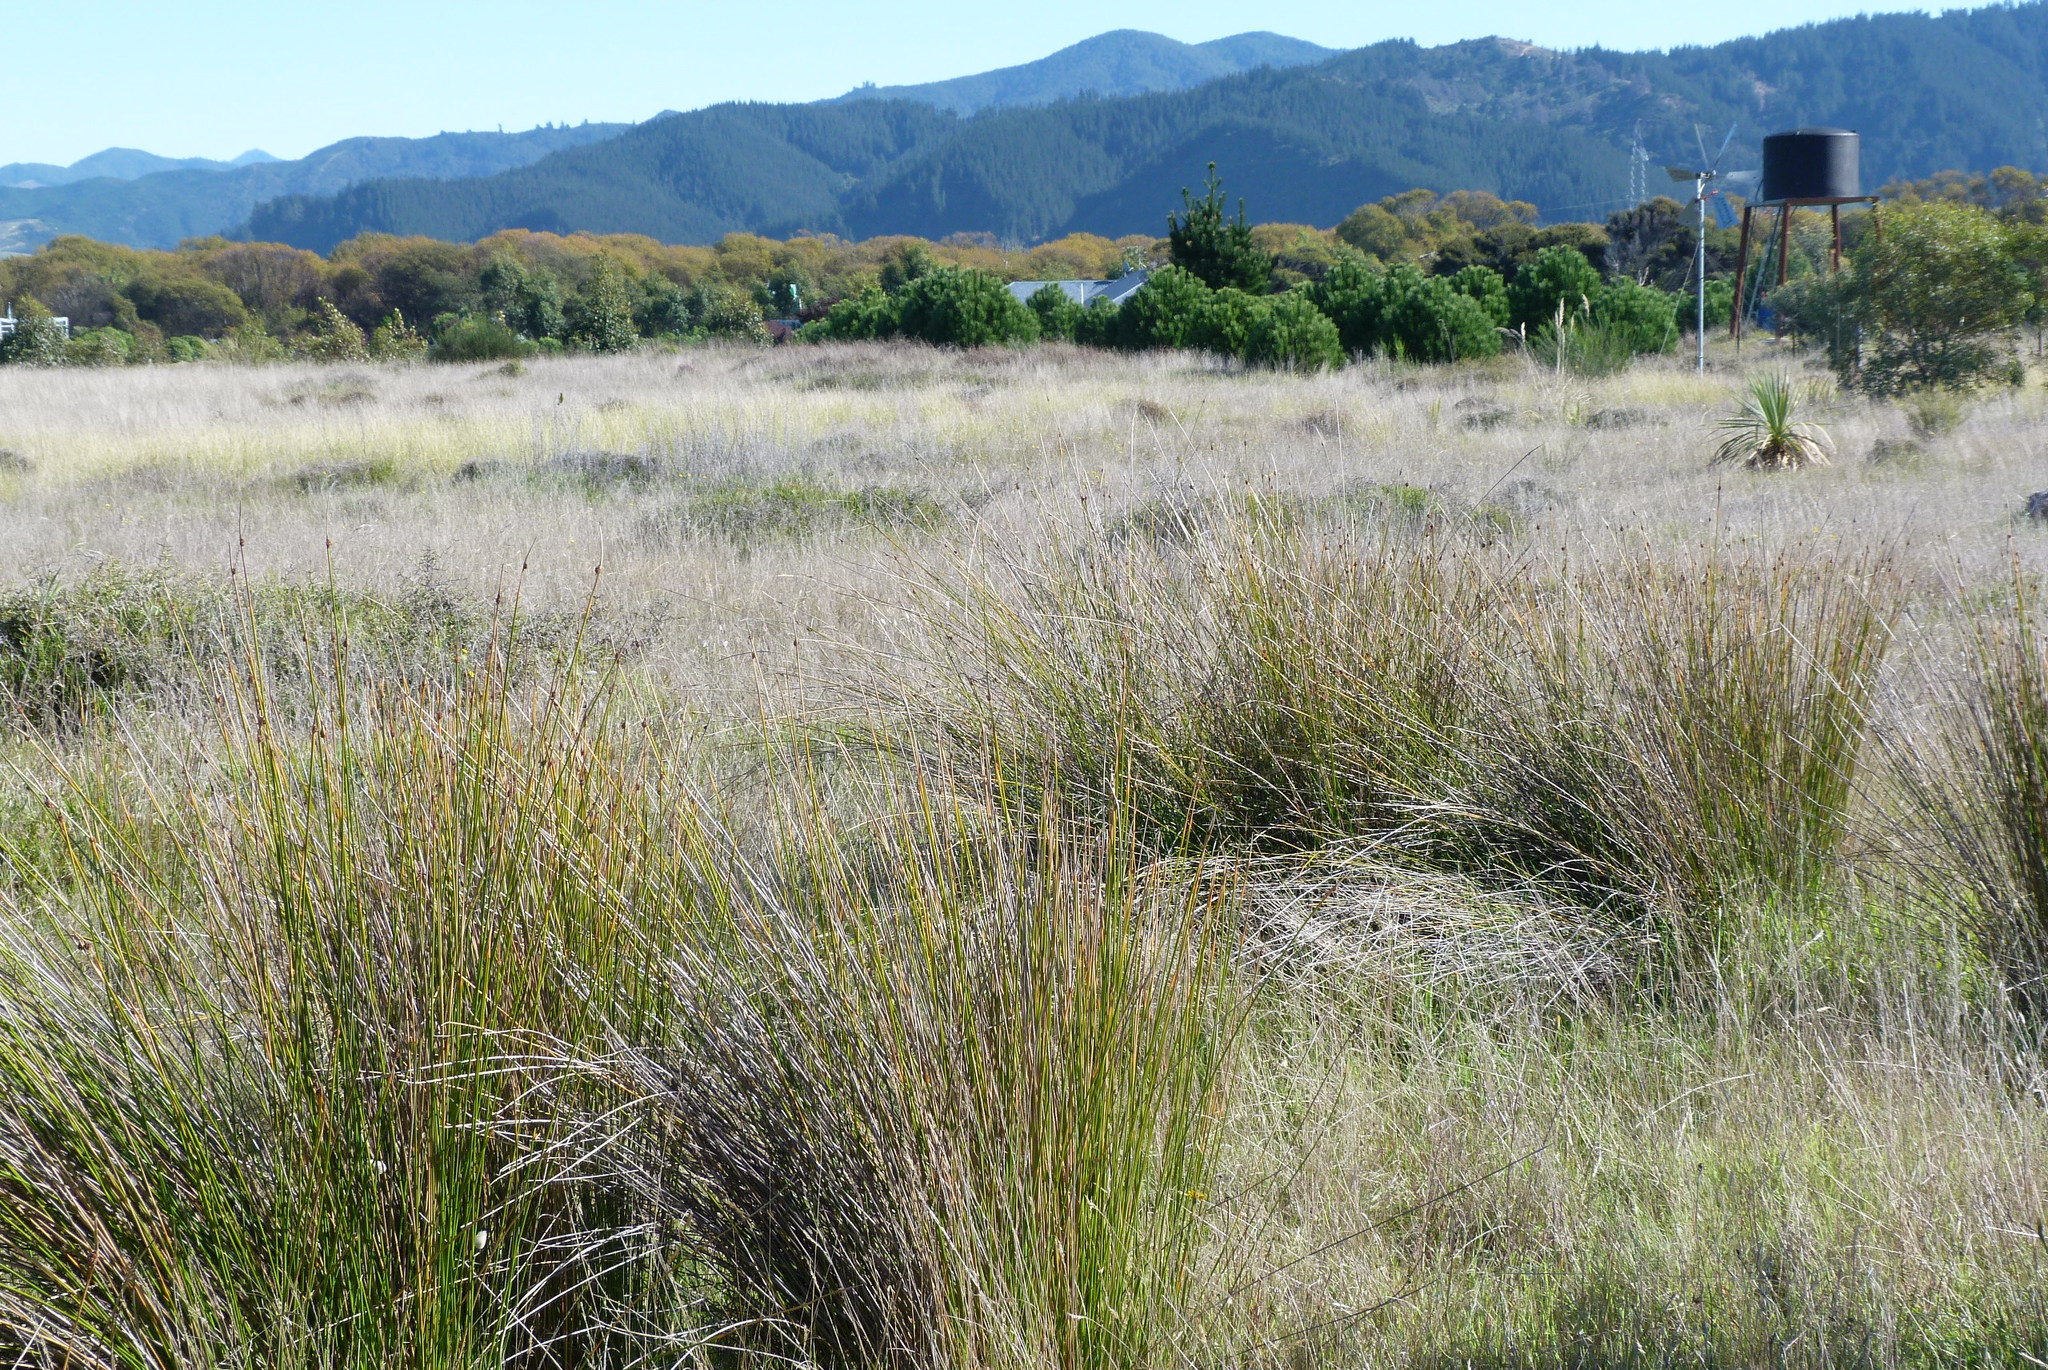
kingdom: Plantae
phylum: Tracheophyta
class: Liliopsida
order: Poales
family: Cyperaceae
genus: Ficinia
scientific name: Ficinia nodosa
